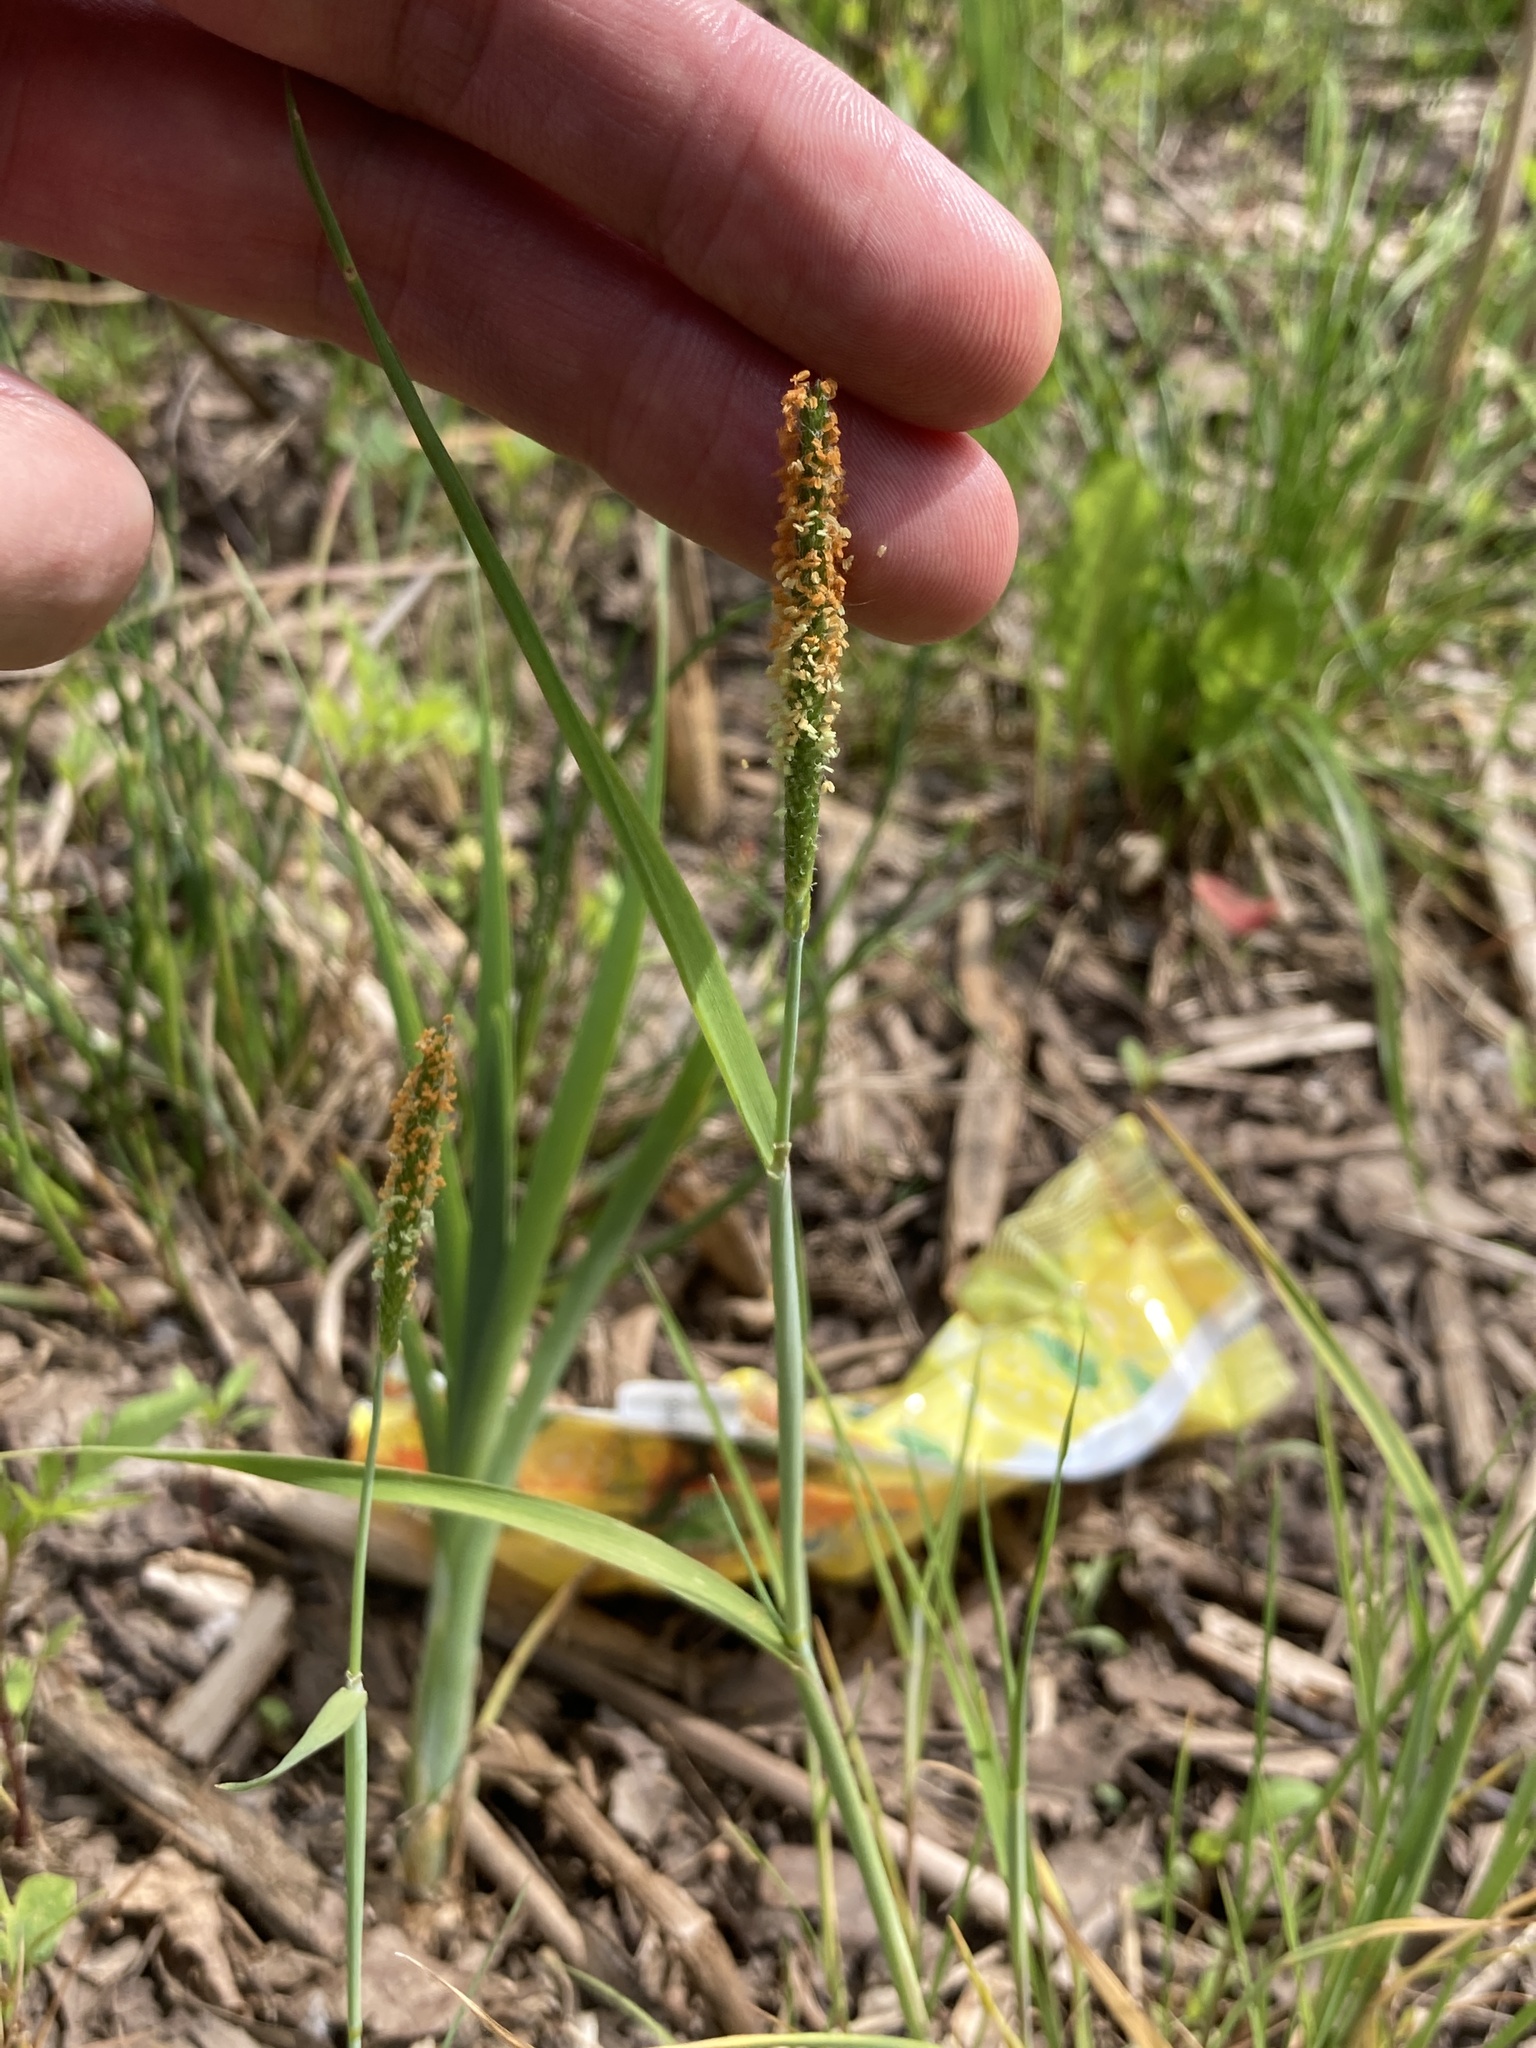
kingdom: Plantae
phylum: Tracheophyta
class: Liliopsida
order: Poales
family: Poaceae
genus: Alopecurus
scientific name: Alopecurus aequalis
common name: Orange foxtail
